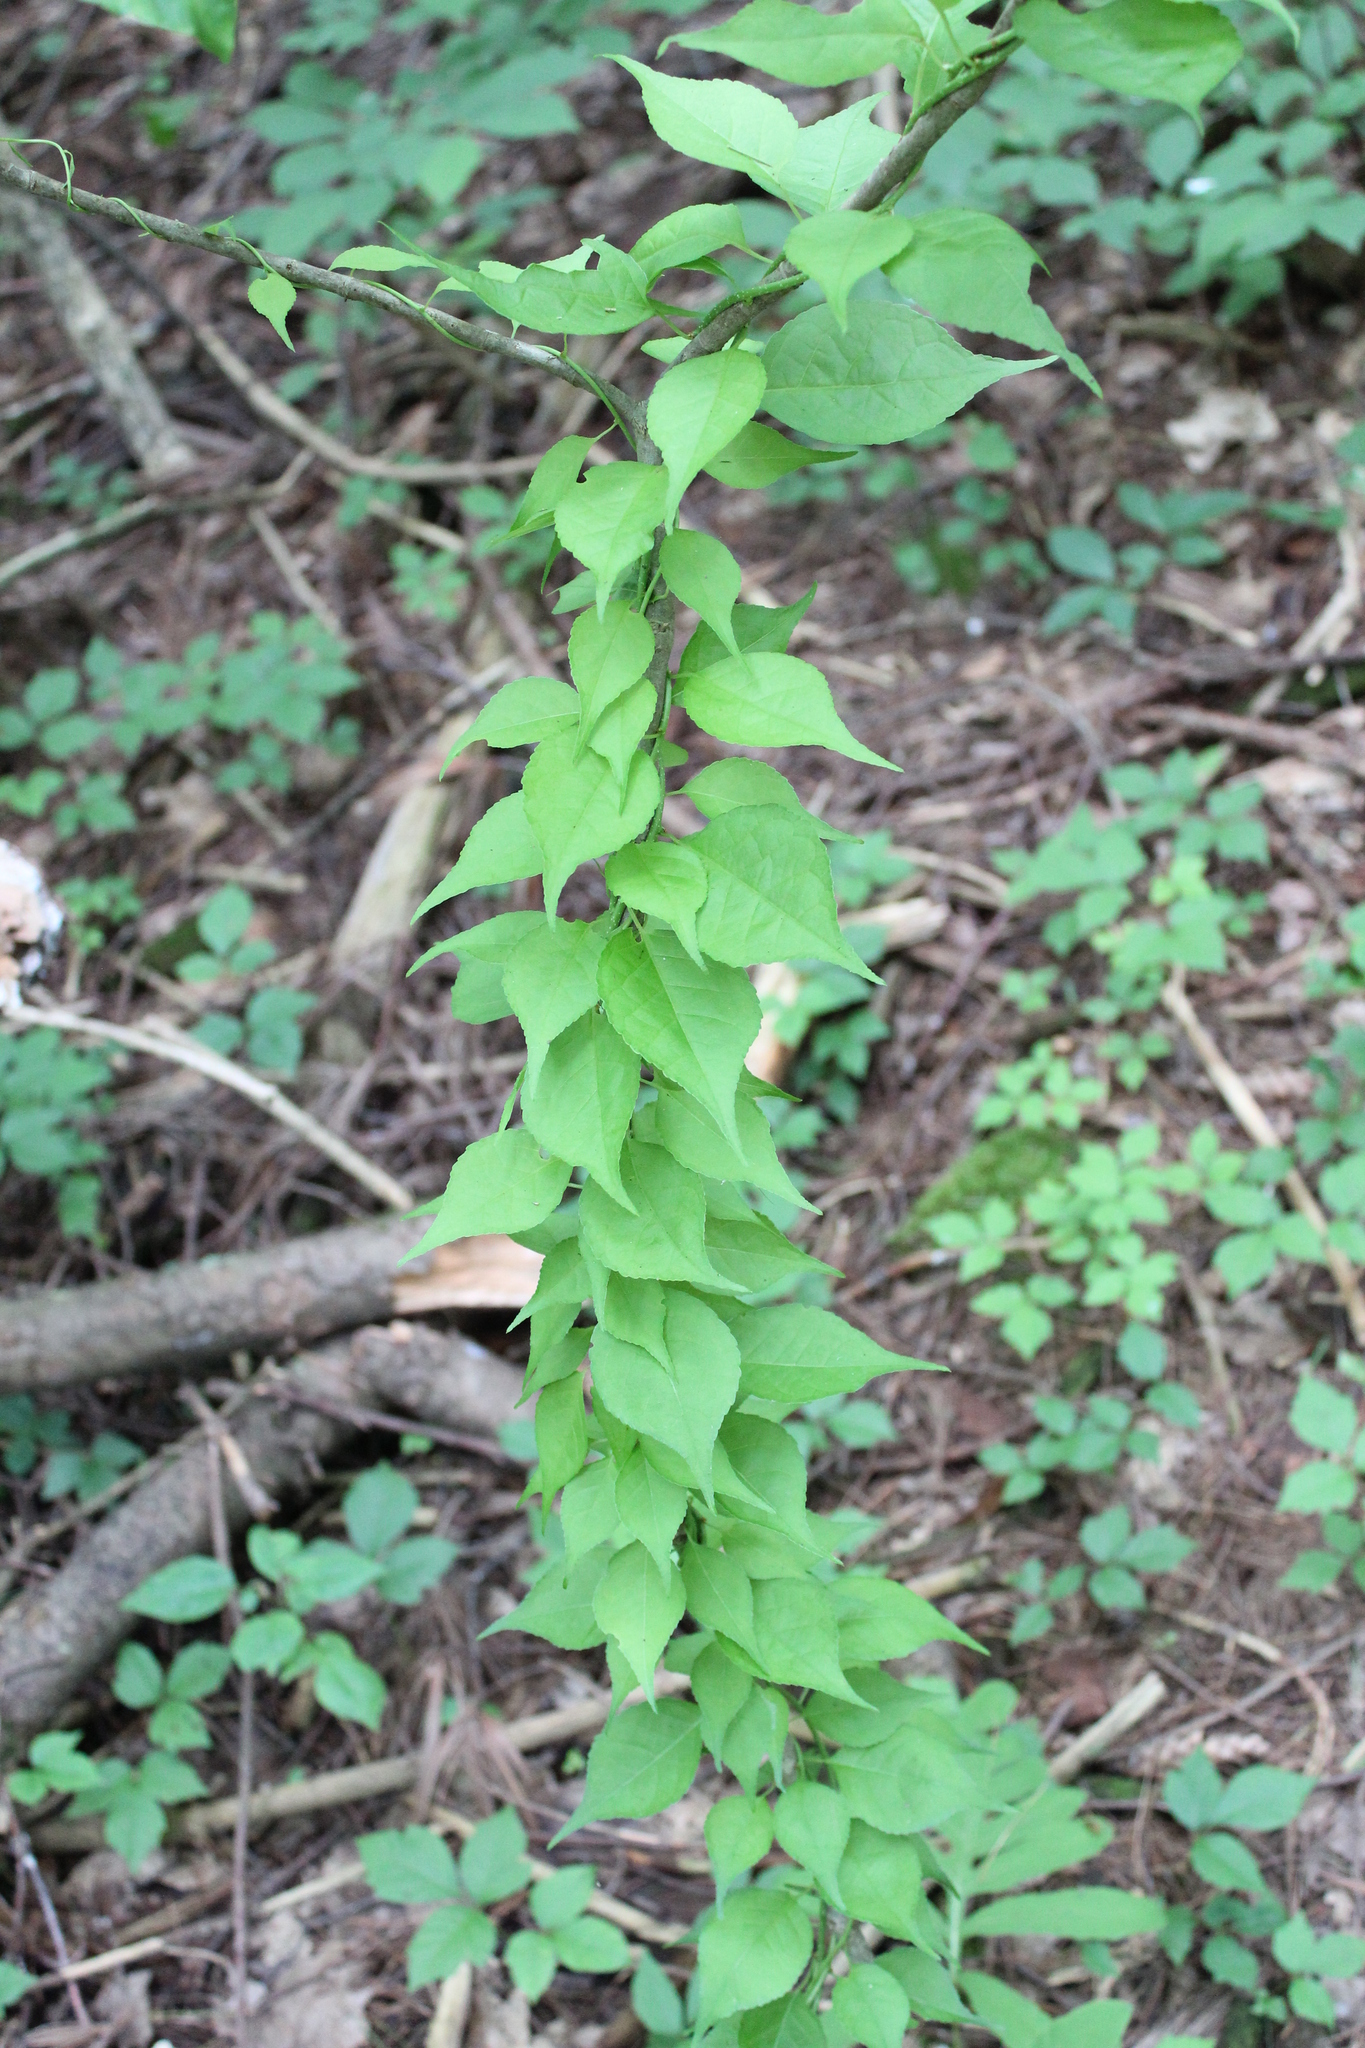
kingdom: Plantae
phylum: Tracheophyta
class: Magnoliopsida
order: Celastrales
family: Celastraceae
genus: Celastrus
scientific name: Celastrus orbiculatus
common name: Oriental bittersweet
